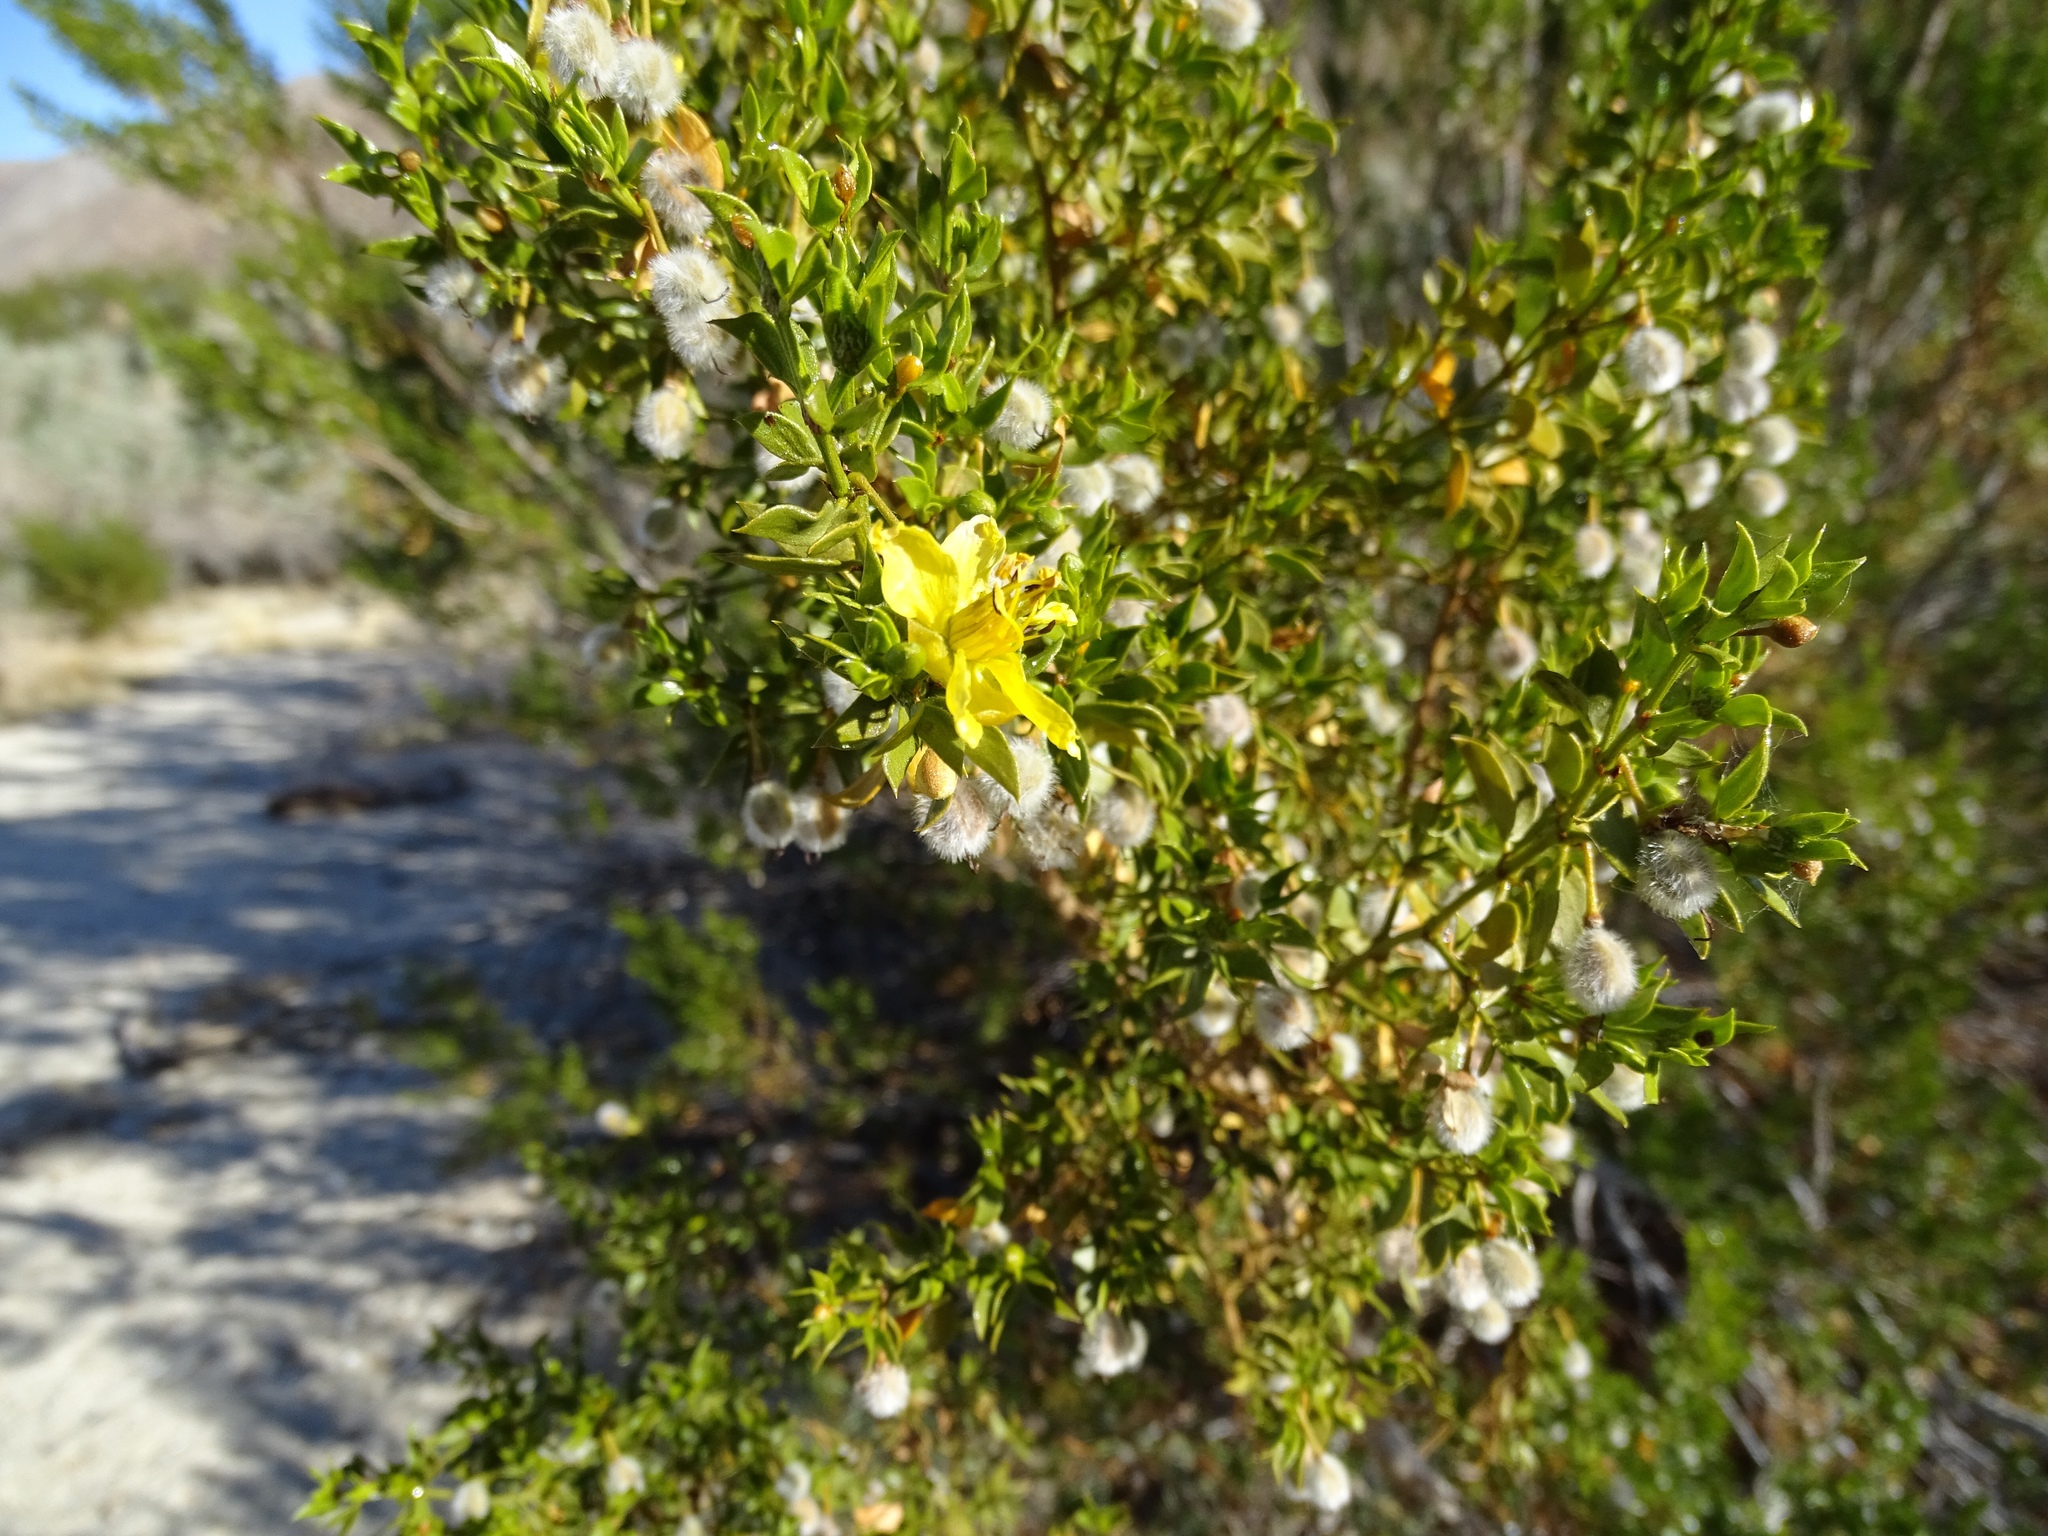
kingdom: Plantae
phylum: Tracheophyta
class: Magnoliopsida
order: Zygophyllales
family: Zygophyllaceae
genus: Larrea
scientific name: Larrea tridentata
